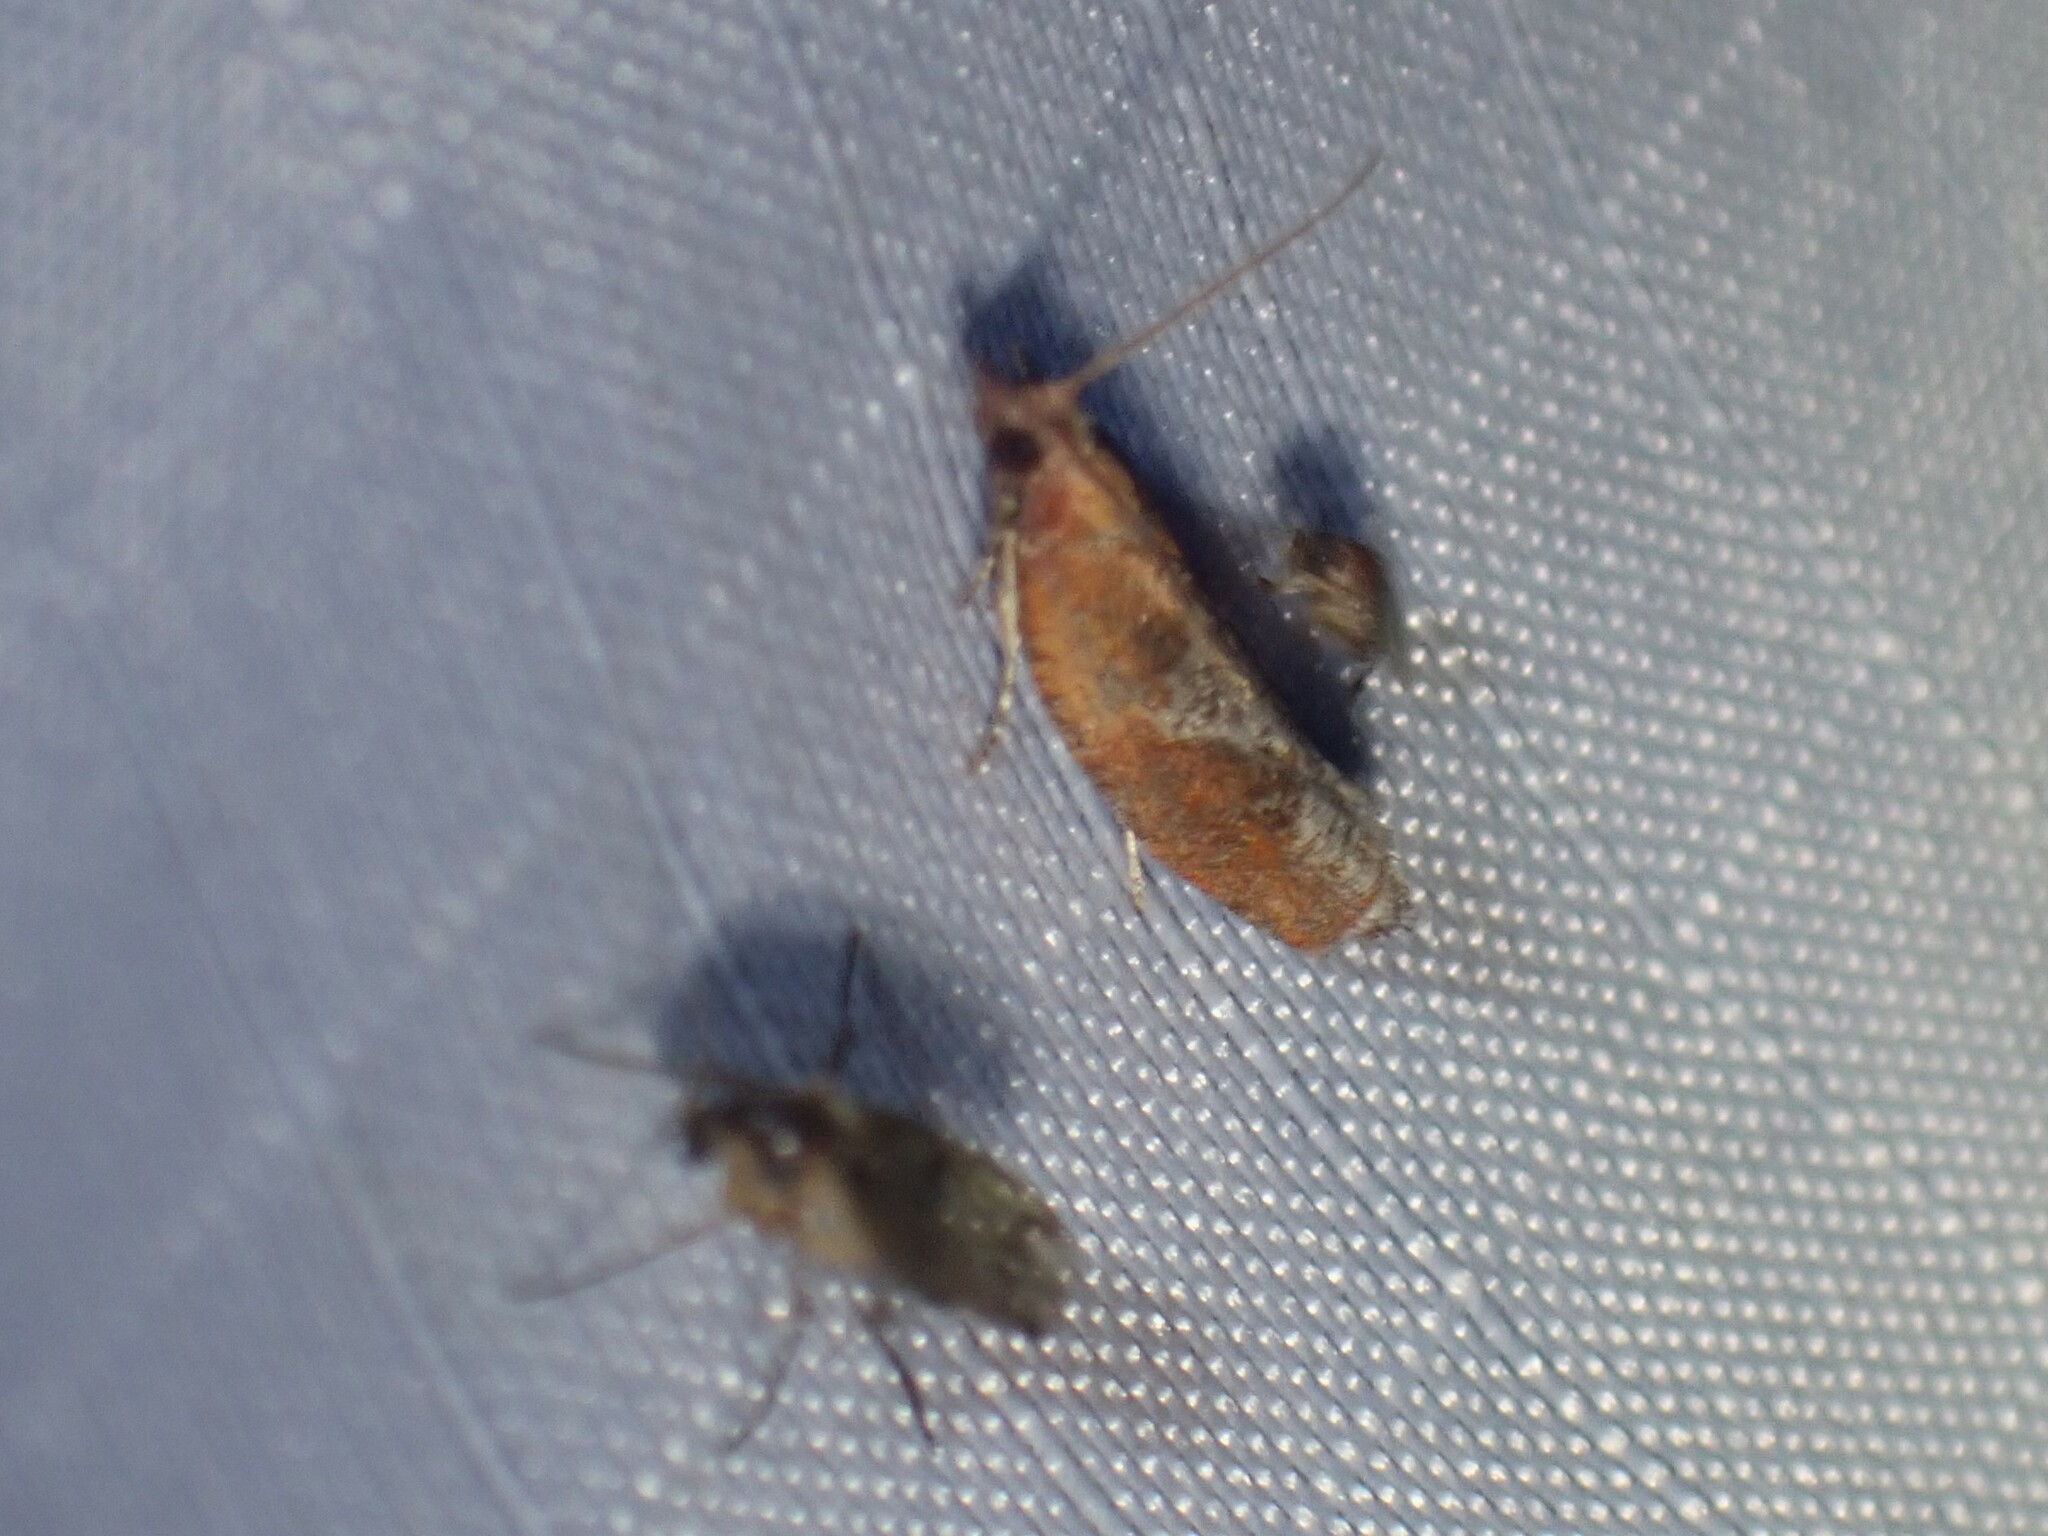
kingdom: Animalia
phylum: Arthropoda
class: Insecta
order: Lepidoptera
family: Tortricidae
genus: Epinotia
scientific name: Epinotia septemberana
